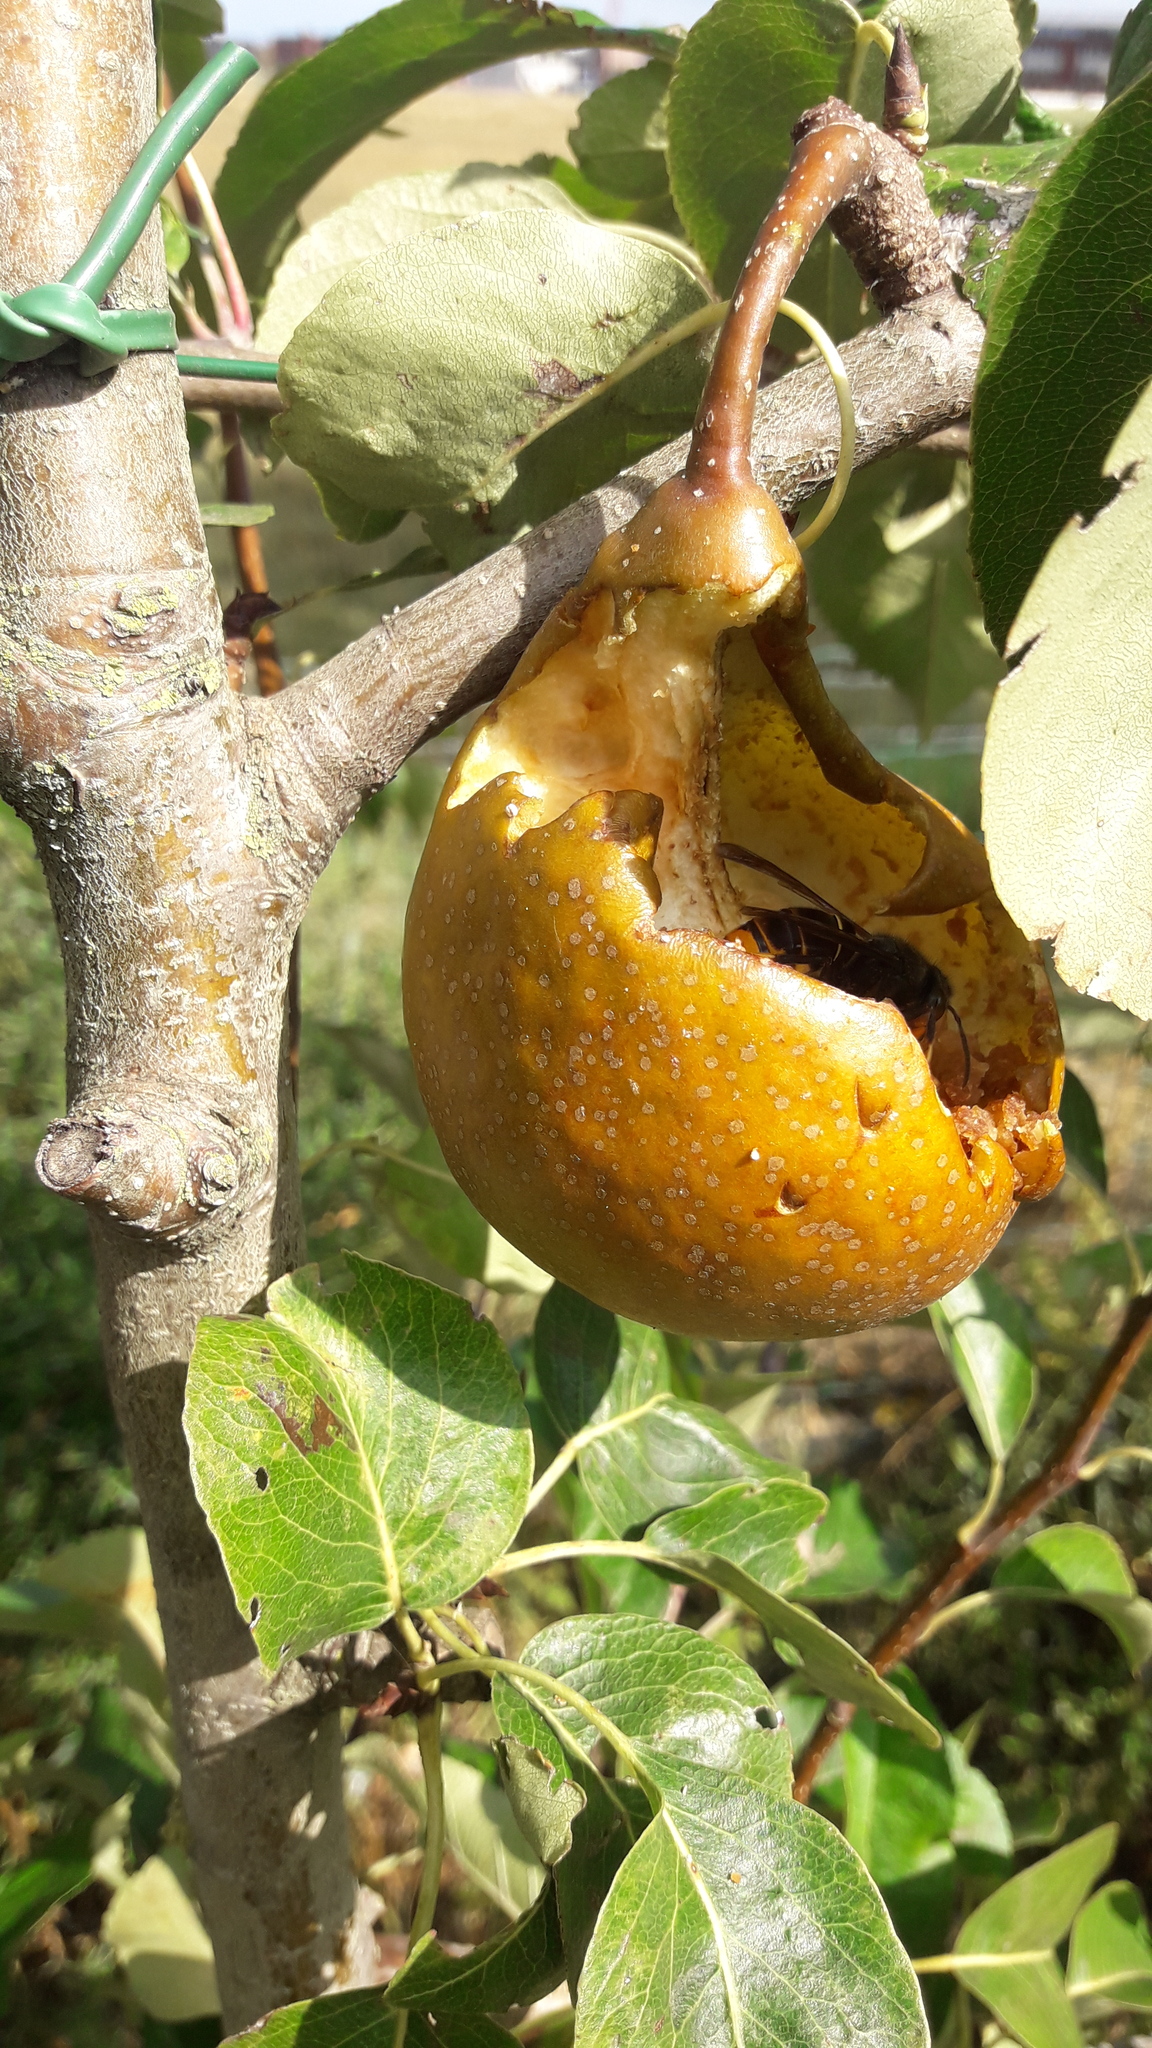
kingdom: Animalia
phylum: Arthropoda
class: Insecta
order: Hymenoptera
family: Vespidae
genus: Vespa
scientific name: Vespa velutina
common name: Asian hornet
